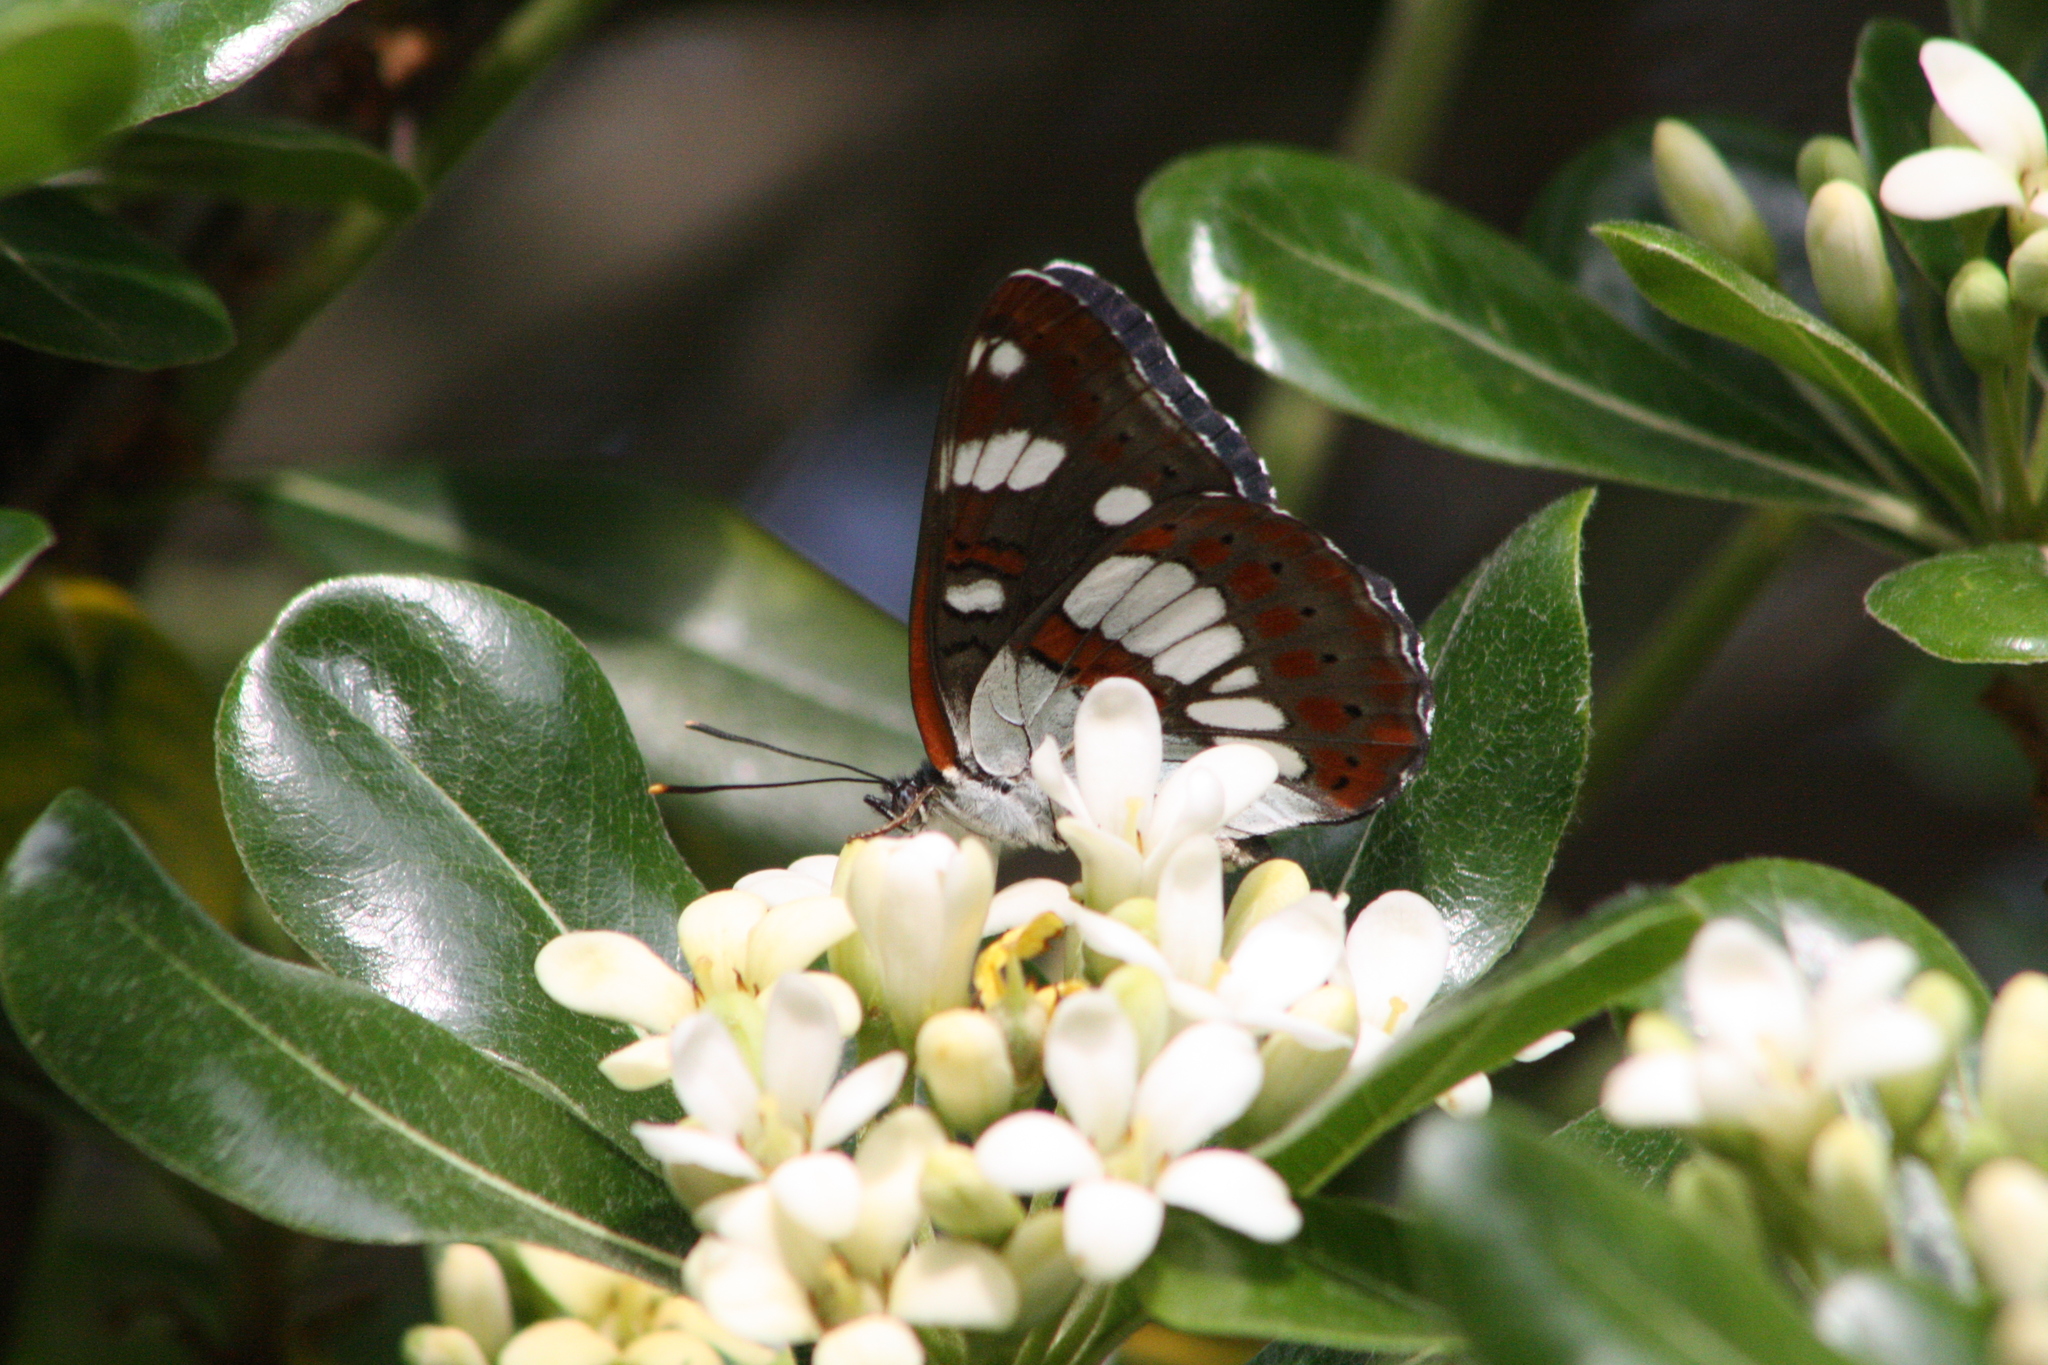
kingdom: Animalia
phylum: Arthropoda
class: Insecta
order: Lepidoptera
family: Nymphalidae
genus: Limenitis
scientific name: Limenitis reducta
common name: Southern white admiral
